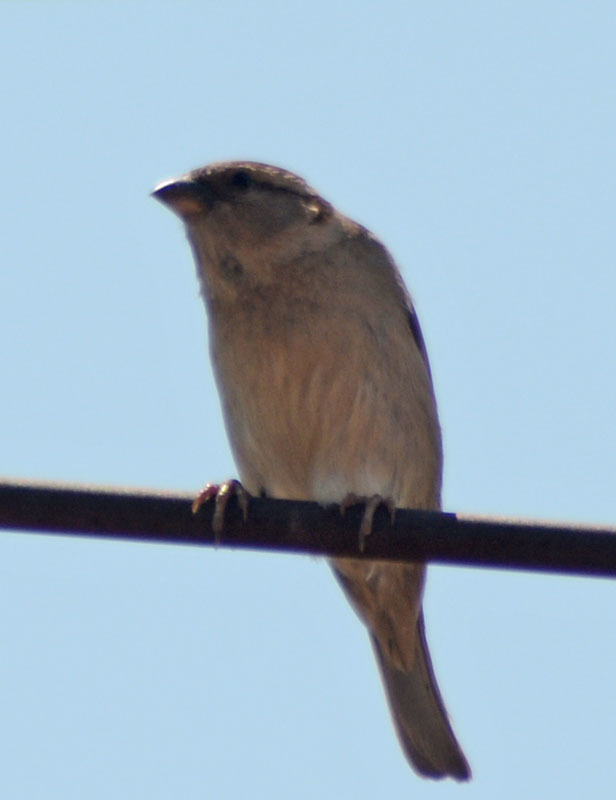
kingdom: Animalia
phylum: Chordata
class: Aves
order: Passeriformes
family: Passeridae
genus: Passer
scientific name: Passer domesticus
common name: House sparrow
